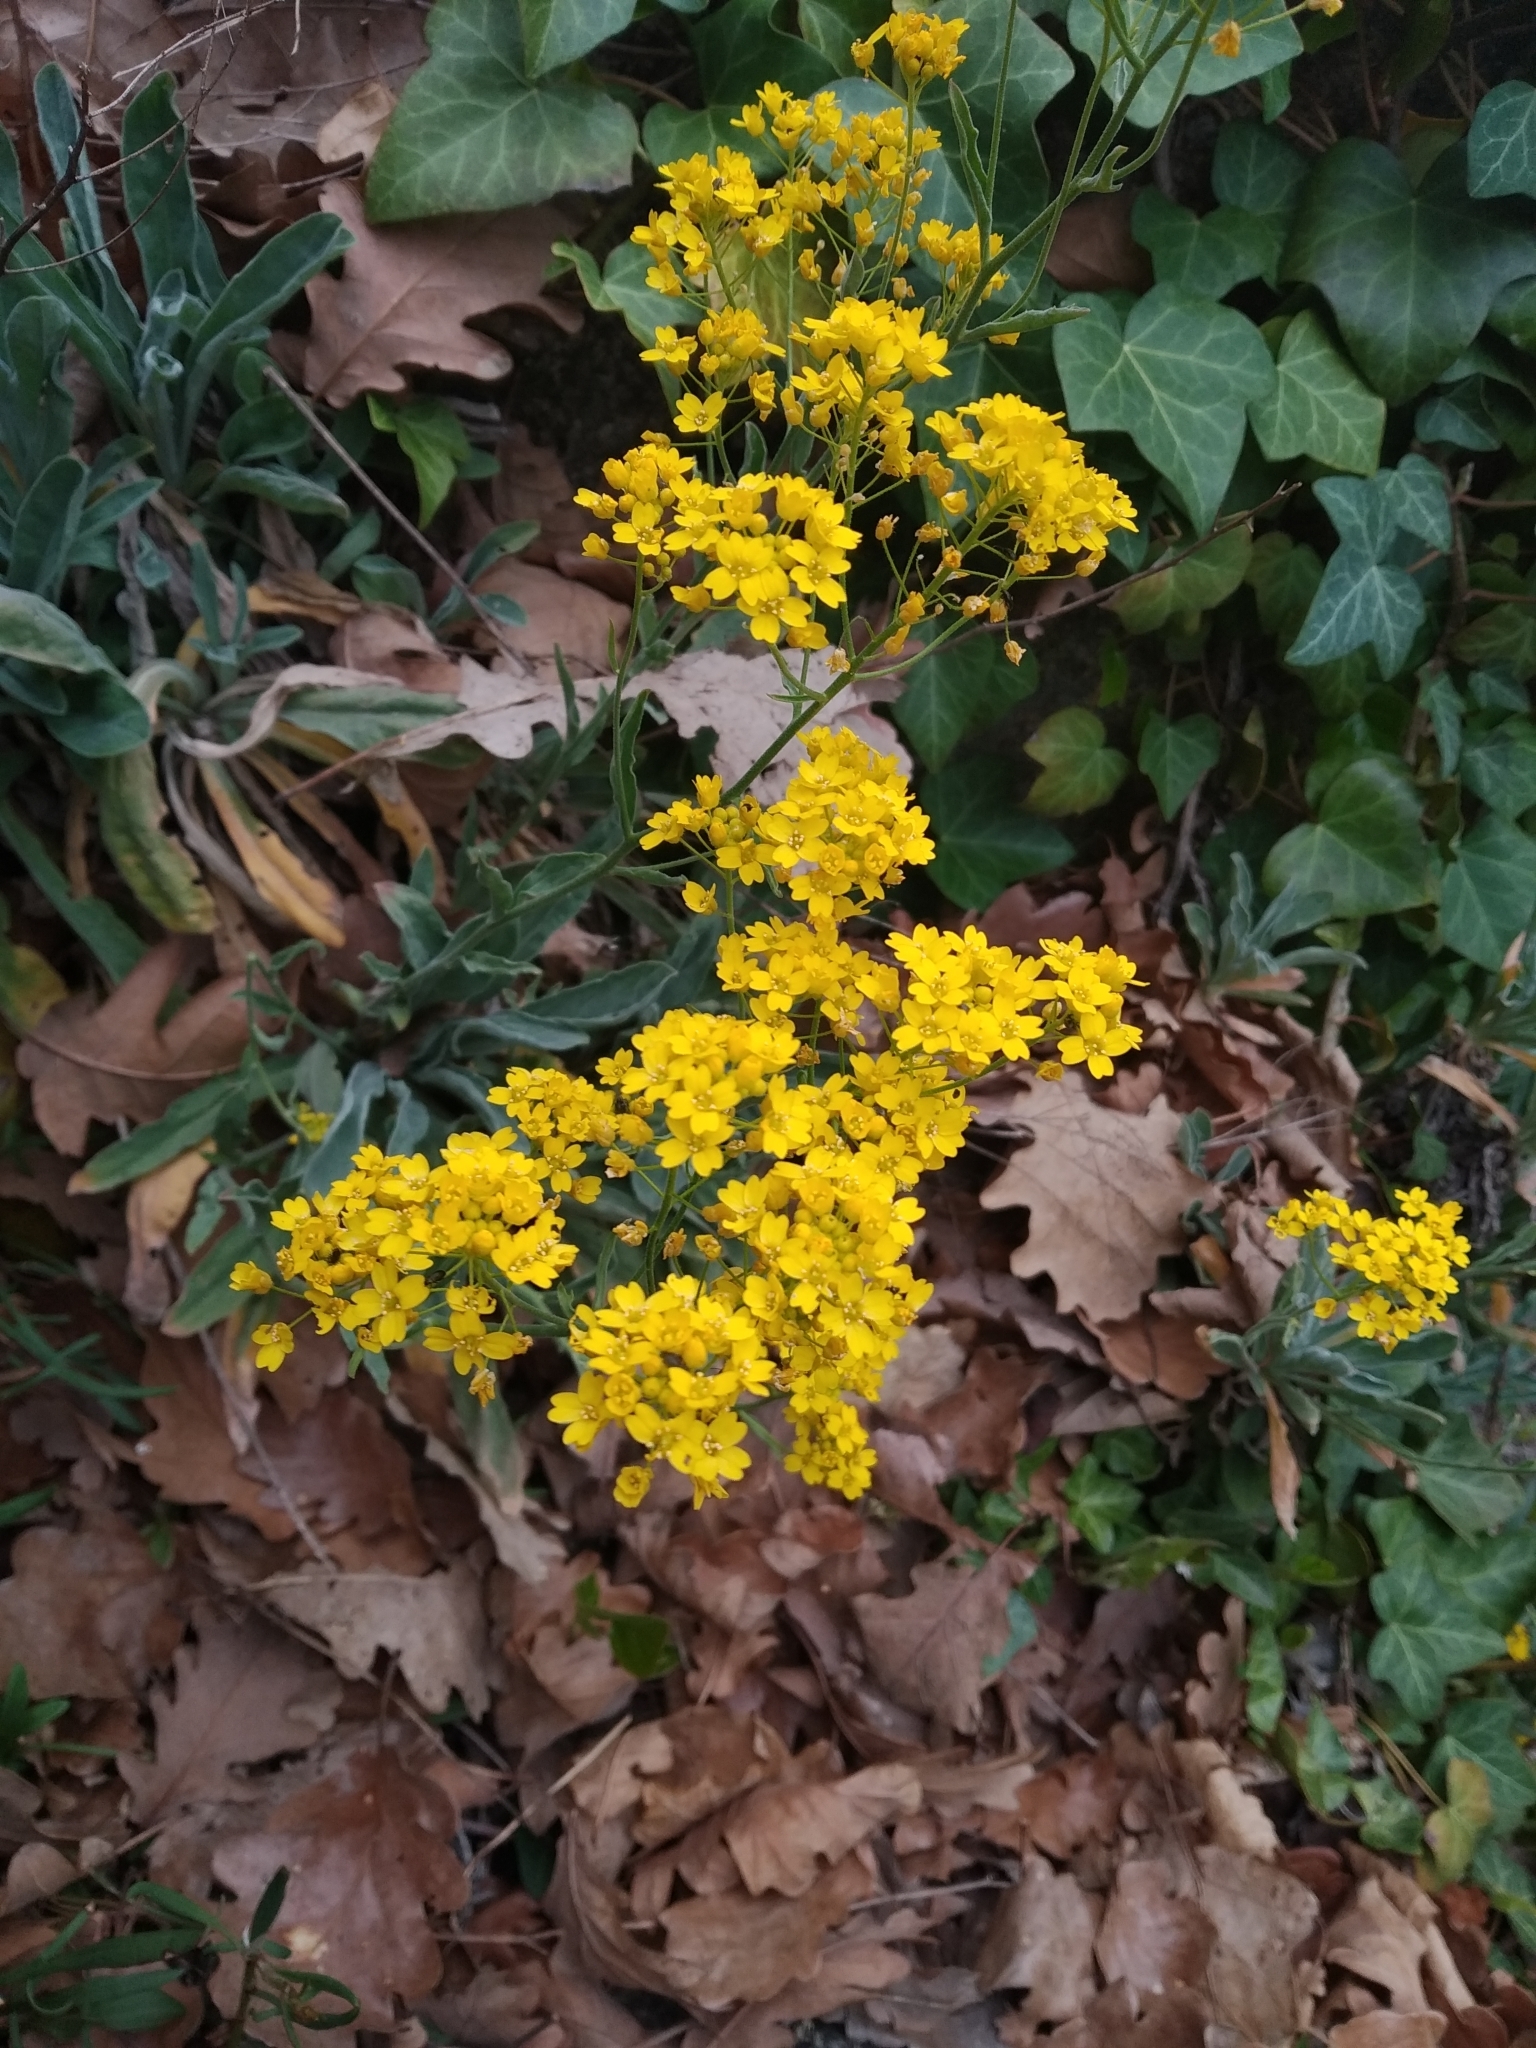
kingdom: Plantae
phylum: Tracheophyta
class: Magnoliopsida
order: Brassicales
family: Brassicaceae
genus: Aurinia
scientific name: Aurinia saxatilis
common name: Golden-tuft alyssum
